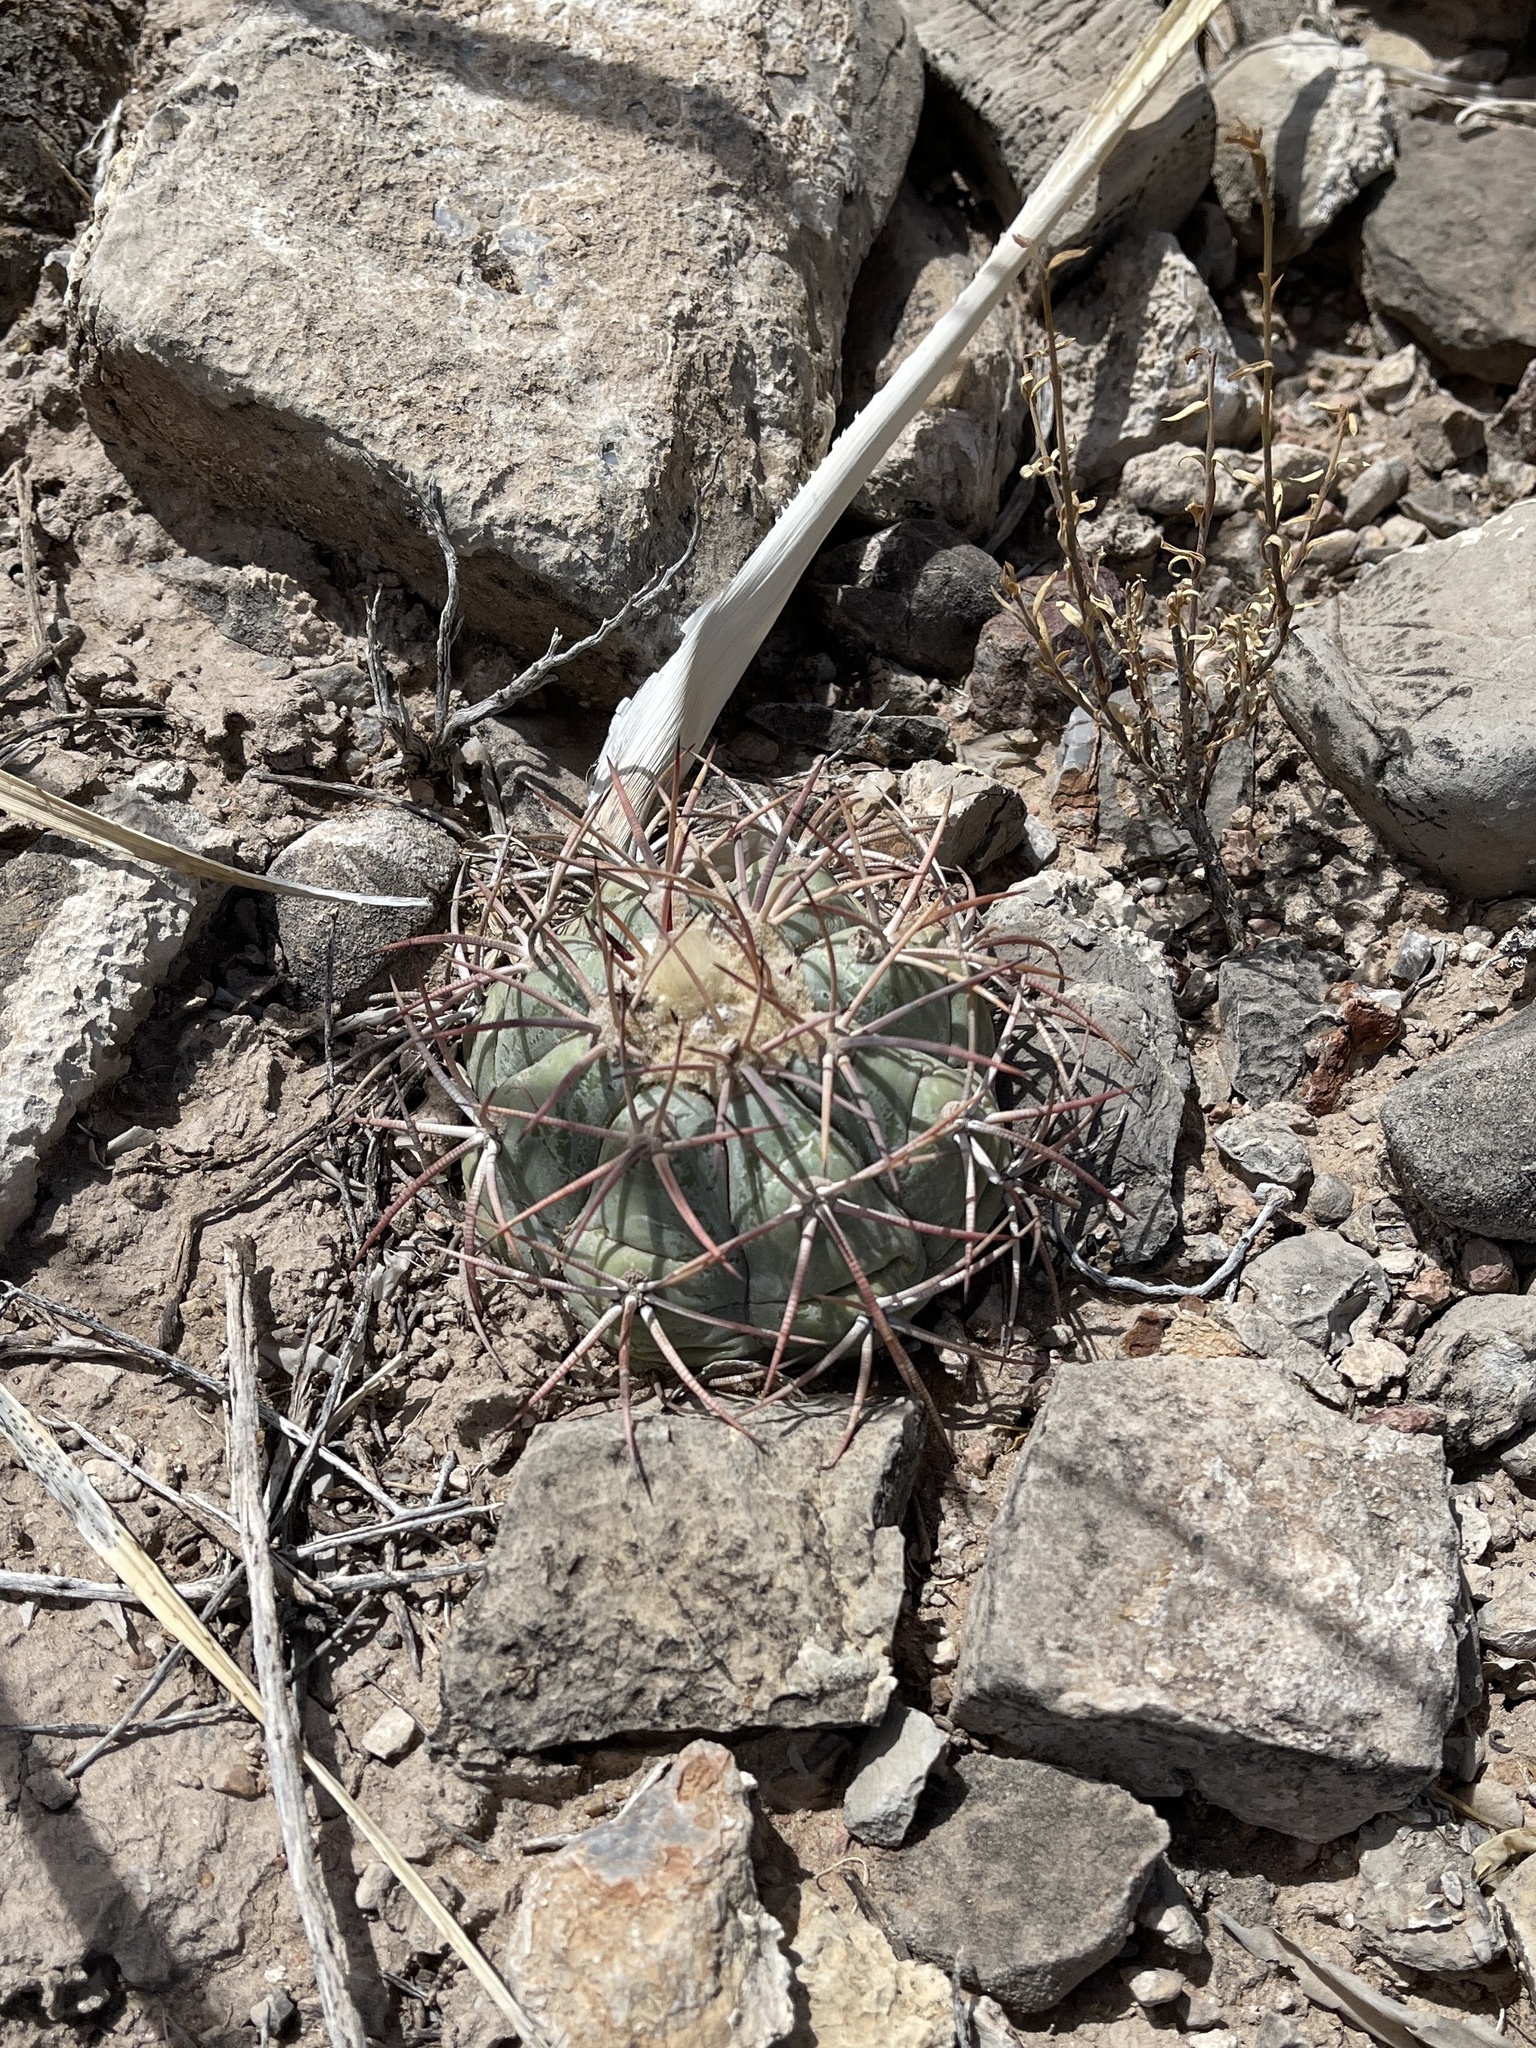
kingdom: Plantae
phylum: Tracheophyta
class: Magnoliopsida
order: Caryophyllales
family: Cactaceae
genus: Echinocactus
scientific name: Echinocactus horizonthalonius
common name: Devilshead
